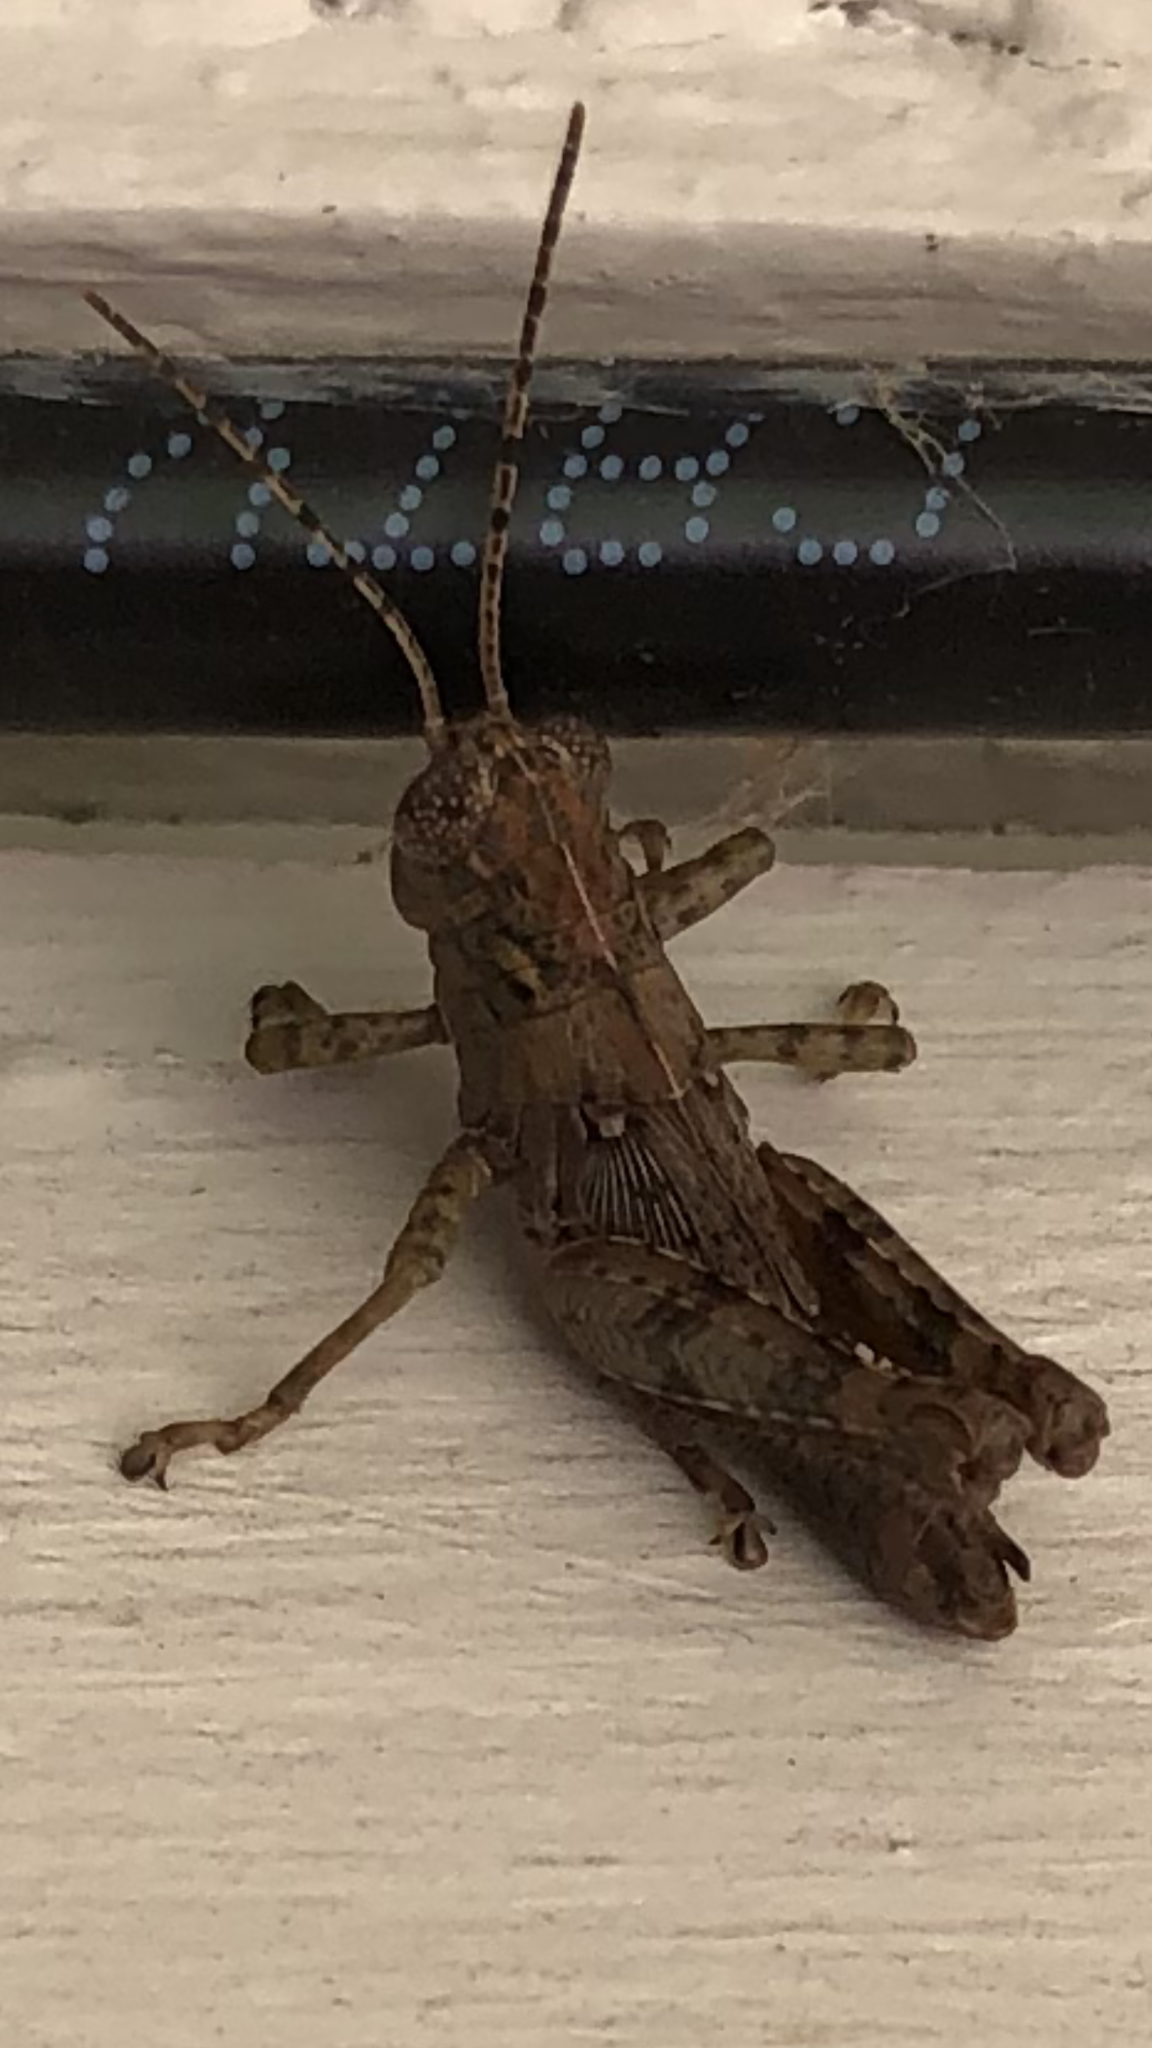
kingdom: Animalia
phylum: Arthropoda
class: Insecta
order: Orthoptera
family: Acrididae
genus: Melanoplus
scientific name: Melanoplus punctulatus
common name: Pine-tree spur-throat grasshopper
